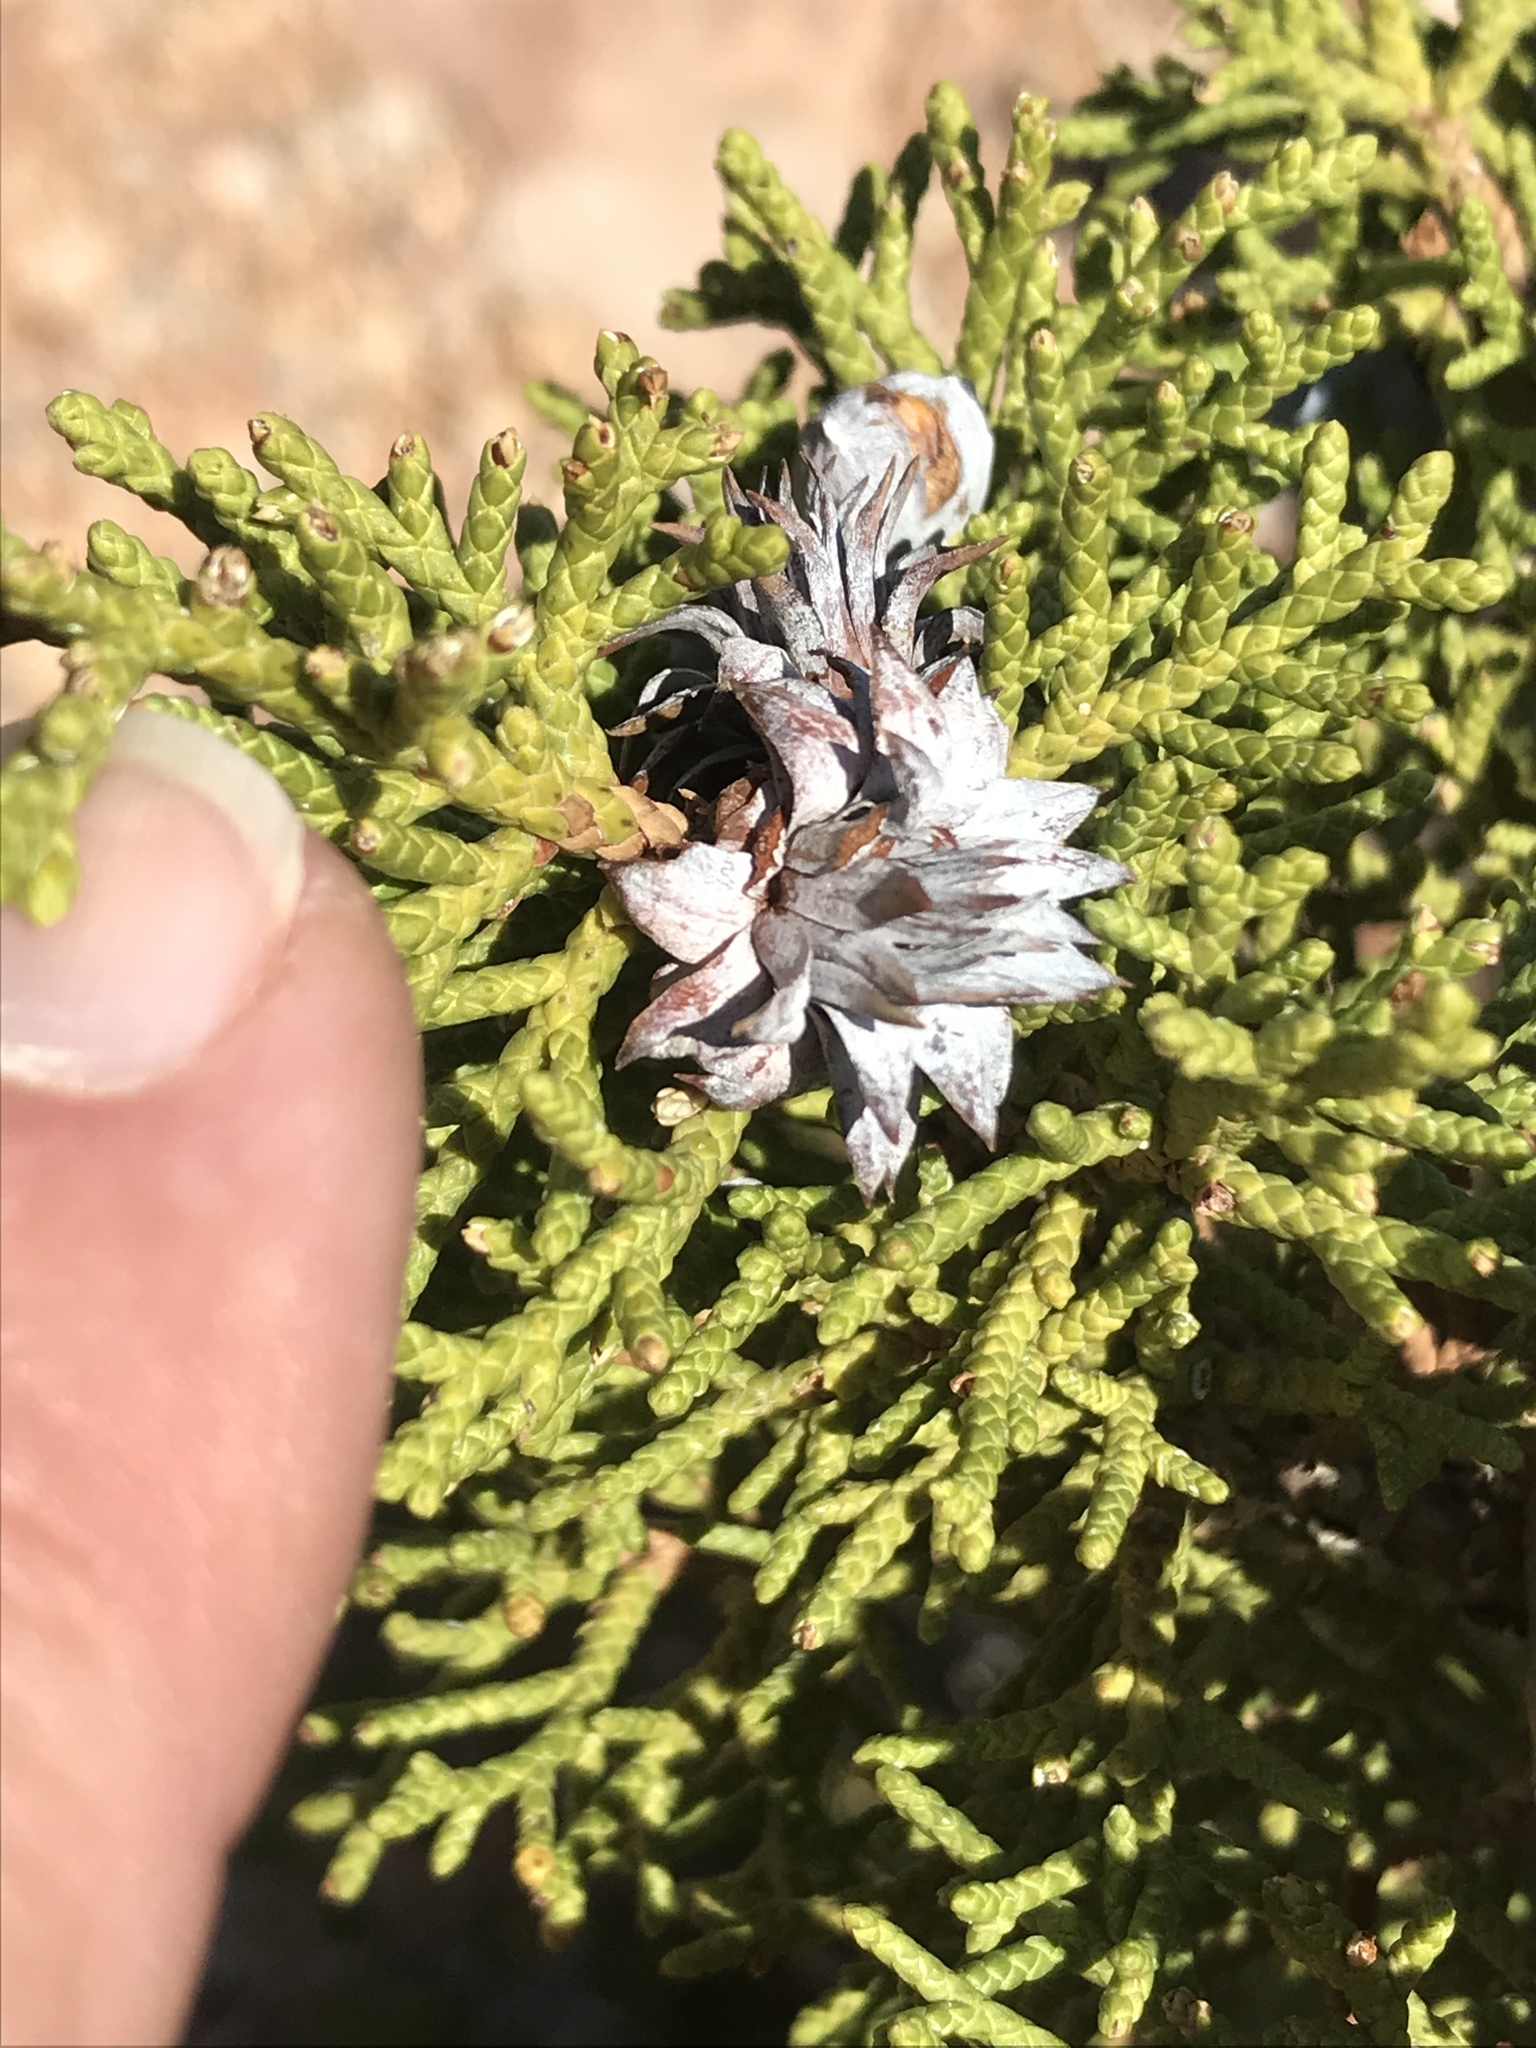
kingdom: Plantae
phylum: Tracheophyta
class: Pinopsida
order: Pinales
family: Cupressaceae
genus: Juniperus
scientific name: Juniperus osteosperma
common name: Utah juniper
